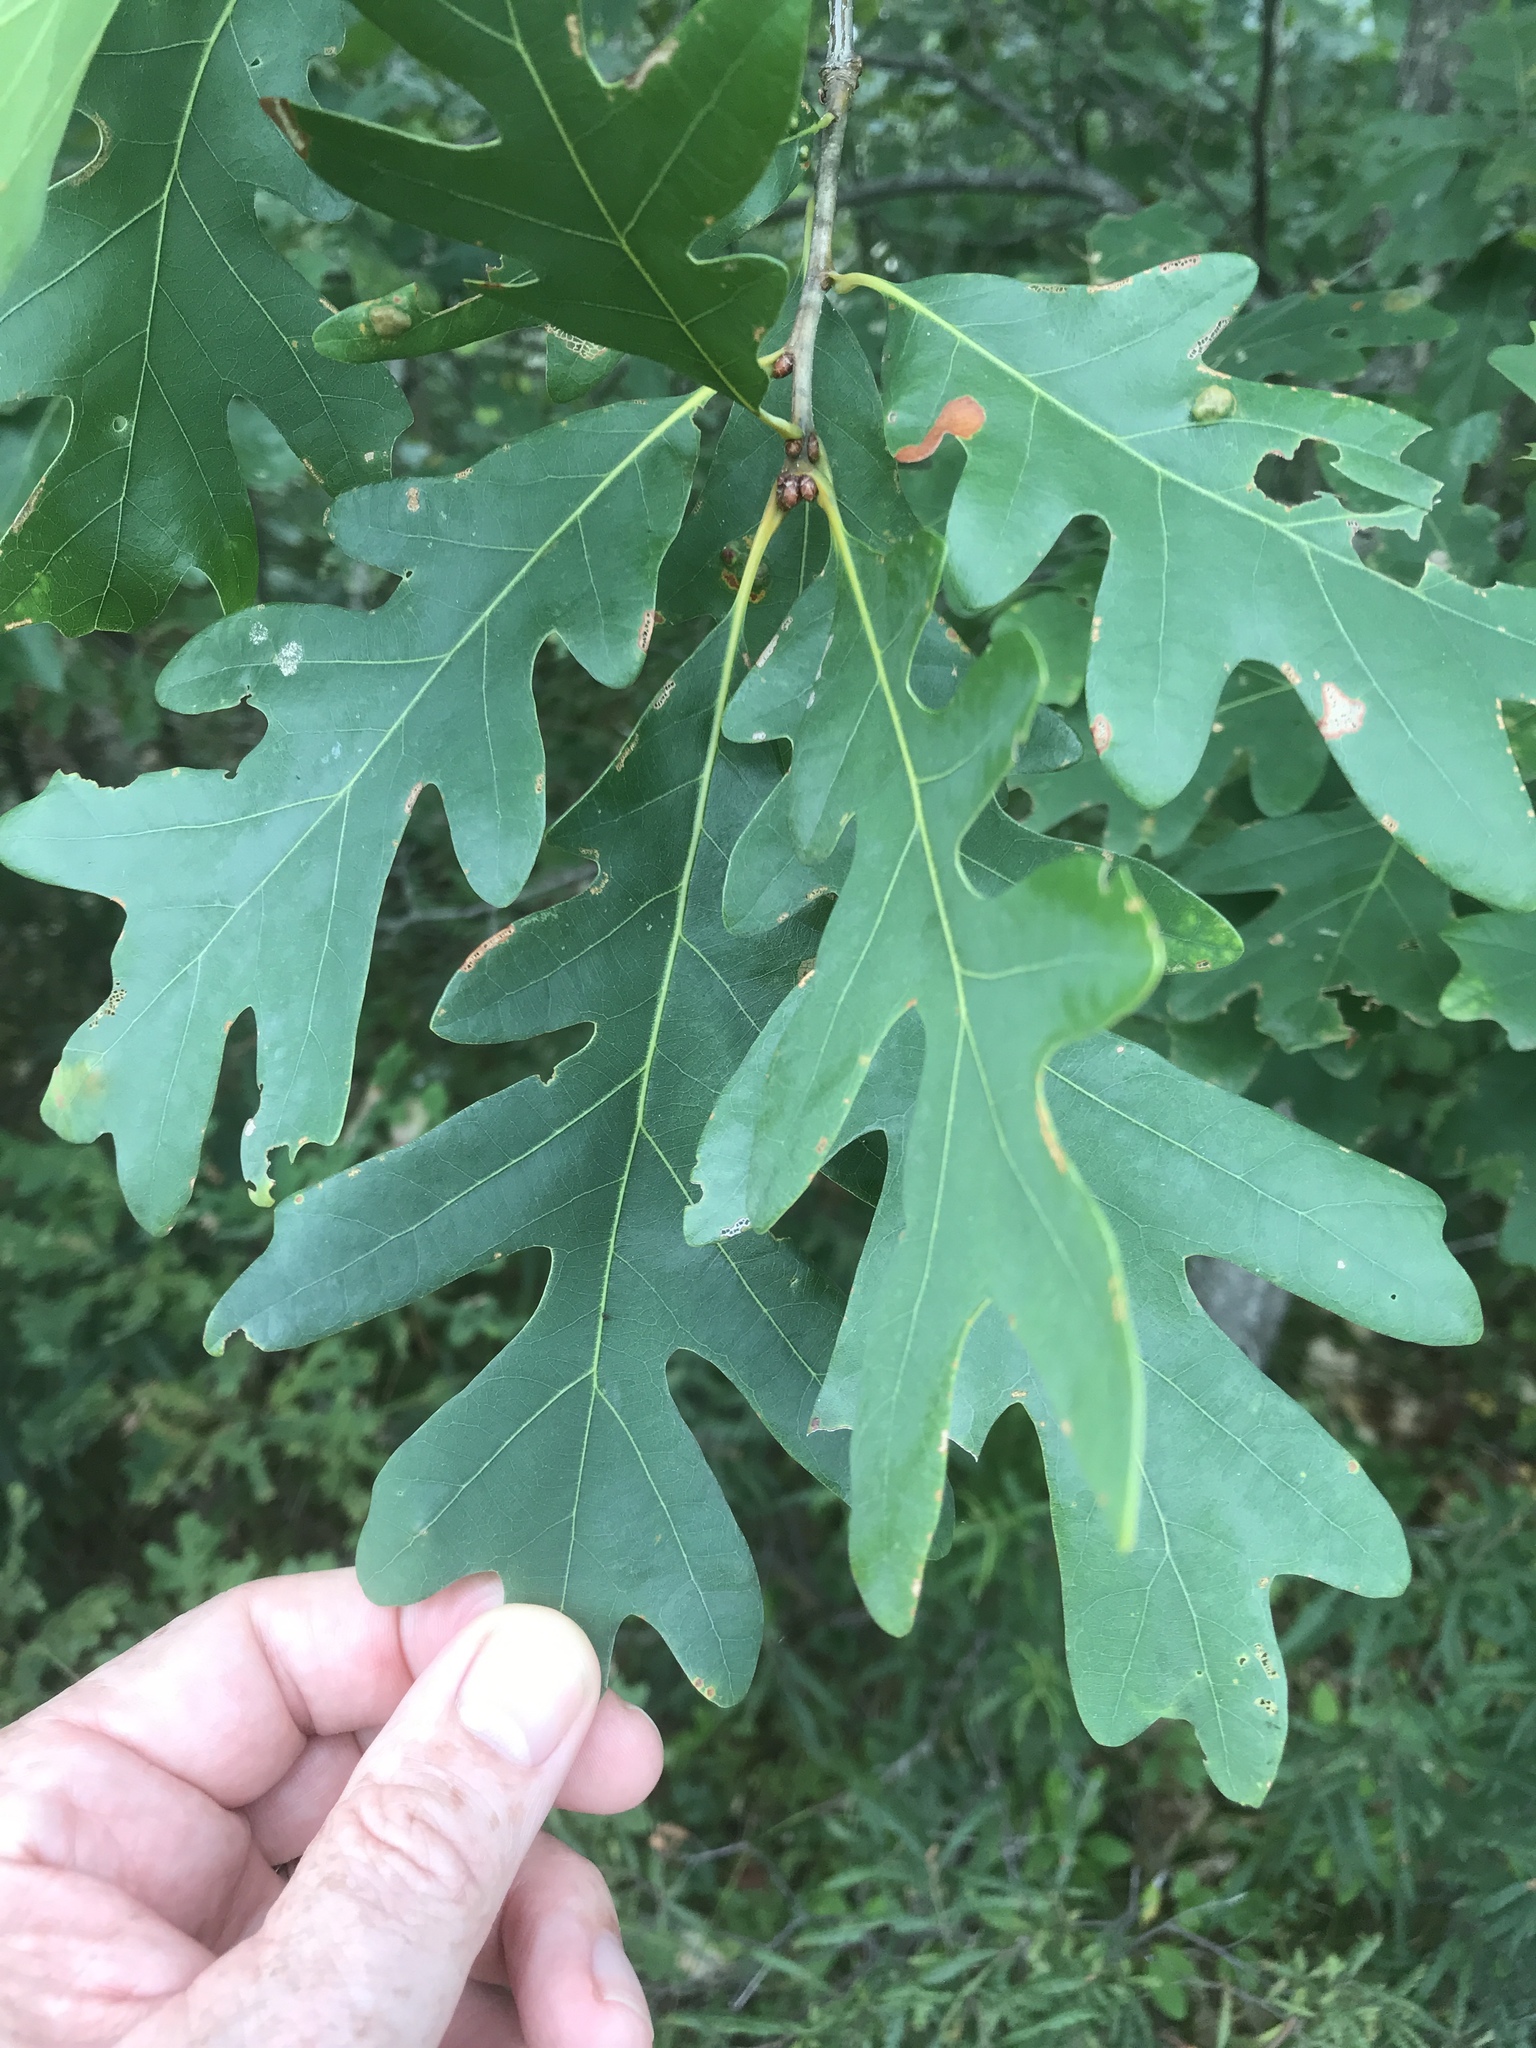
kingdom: Plantae
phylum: Tracheophyta
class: Magnoliopsida
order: Fagales
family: Fagaceae
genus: Quercus
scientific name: Quercus alba
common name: White oak
